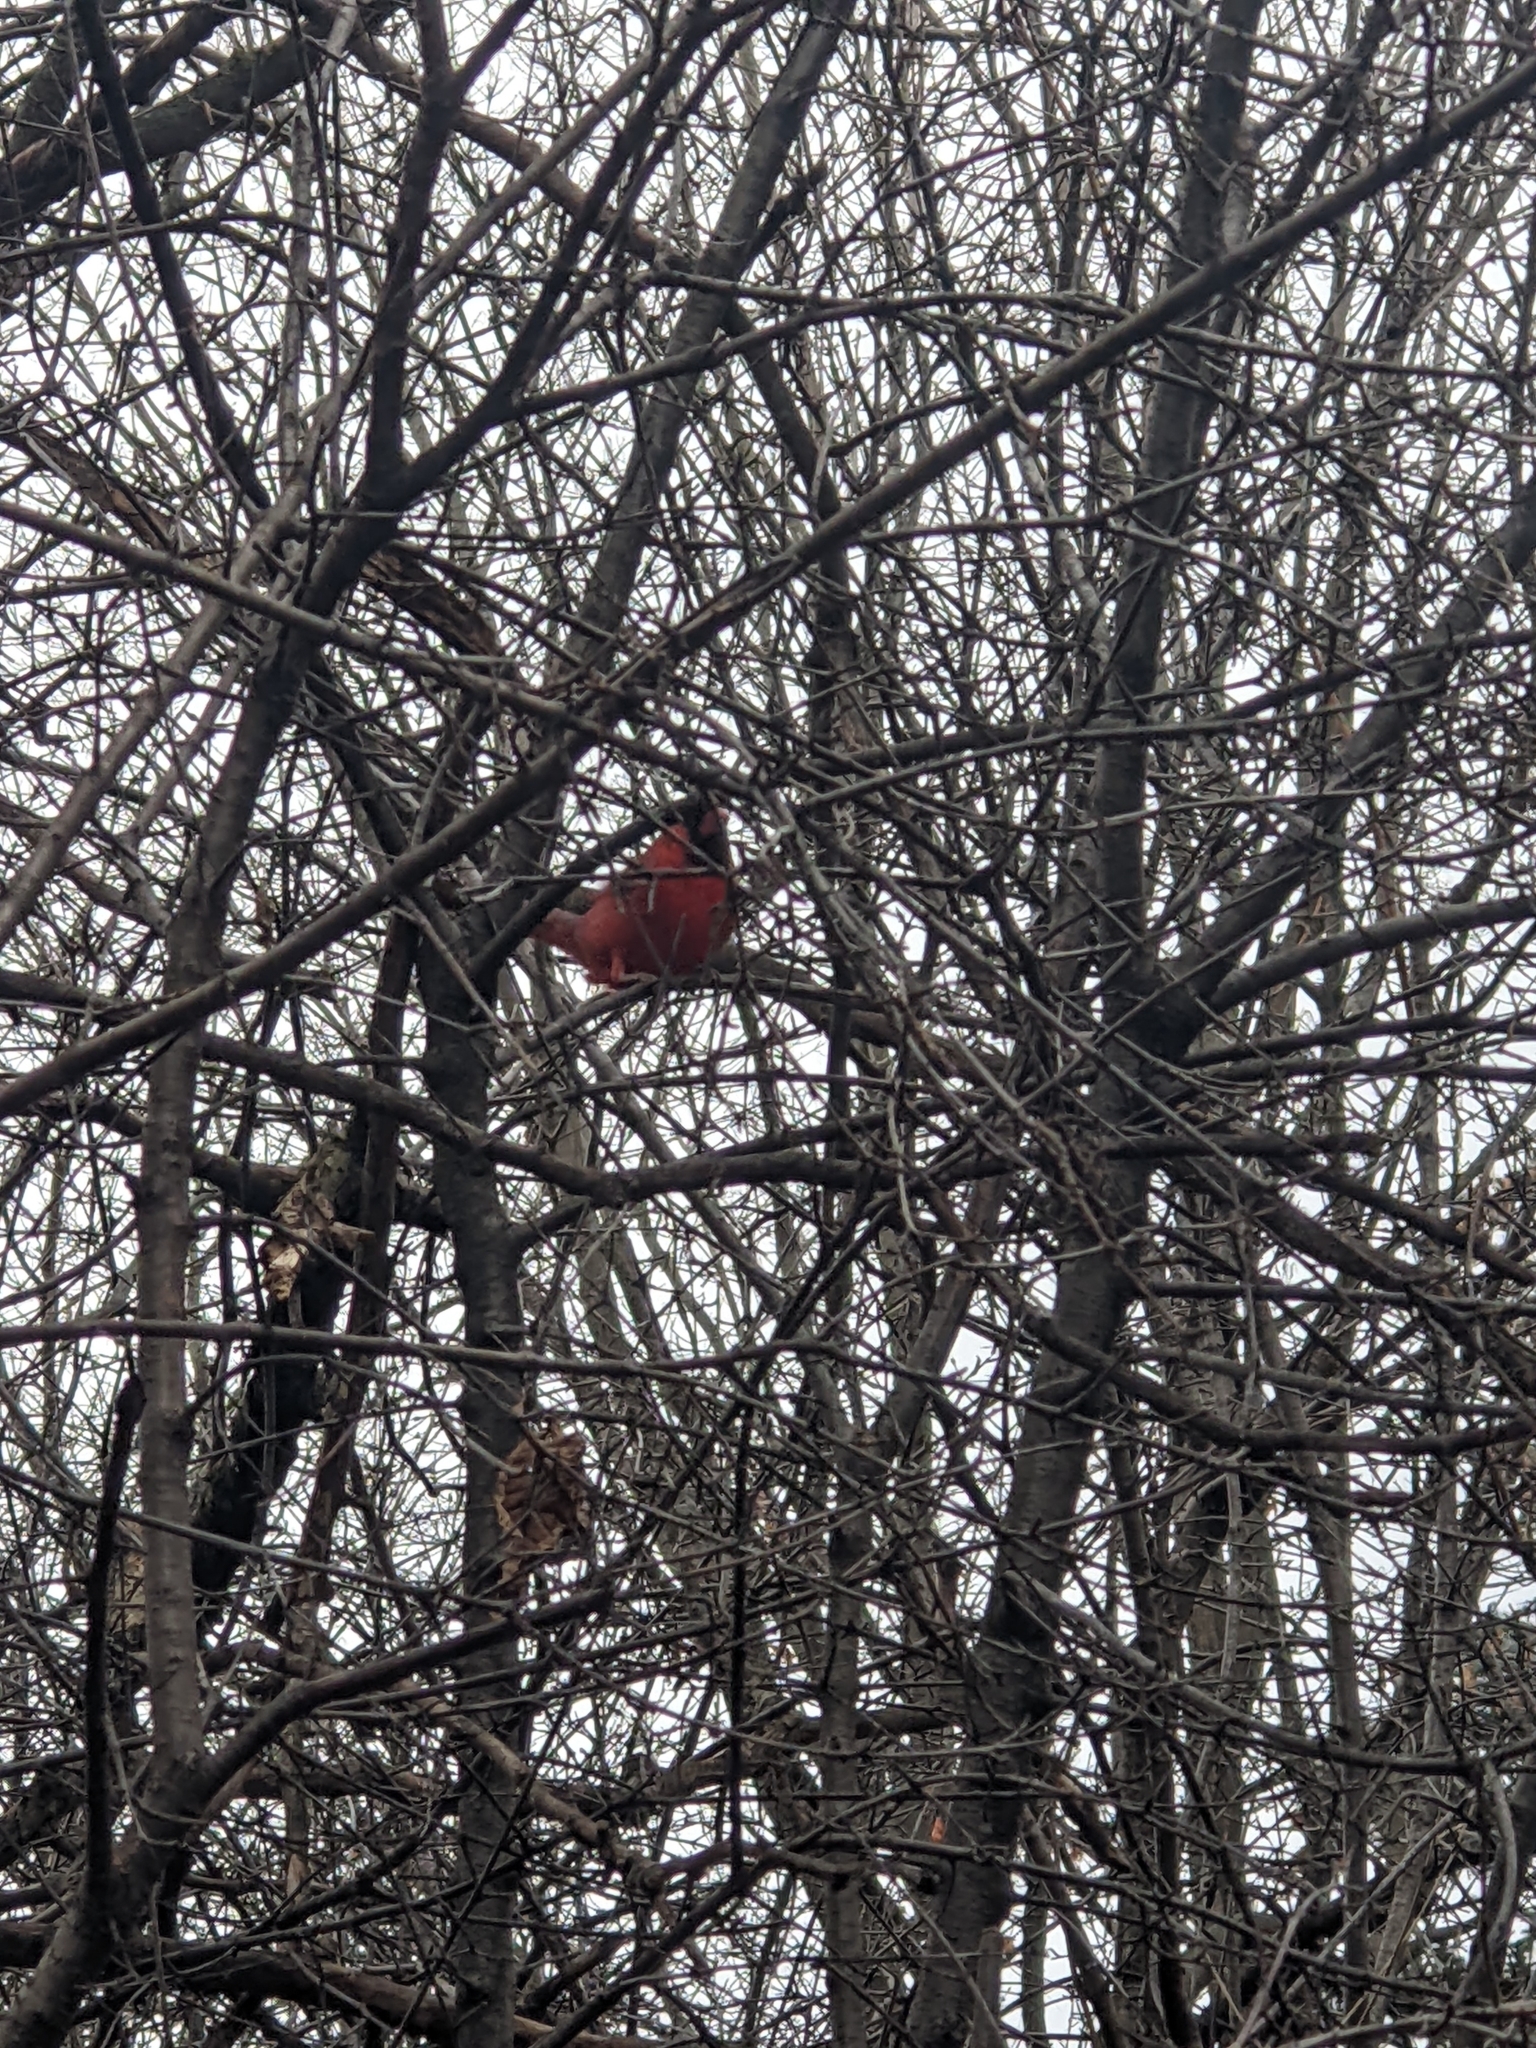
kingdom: Animalia
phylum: Chordata
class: Aves
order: Passeriformes
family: Cardinalidae
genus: Cardinalis
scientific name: Cardinalis cardinalis
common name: Northern cardinal
